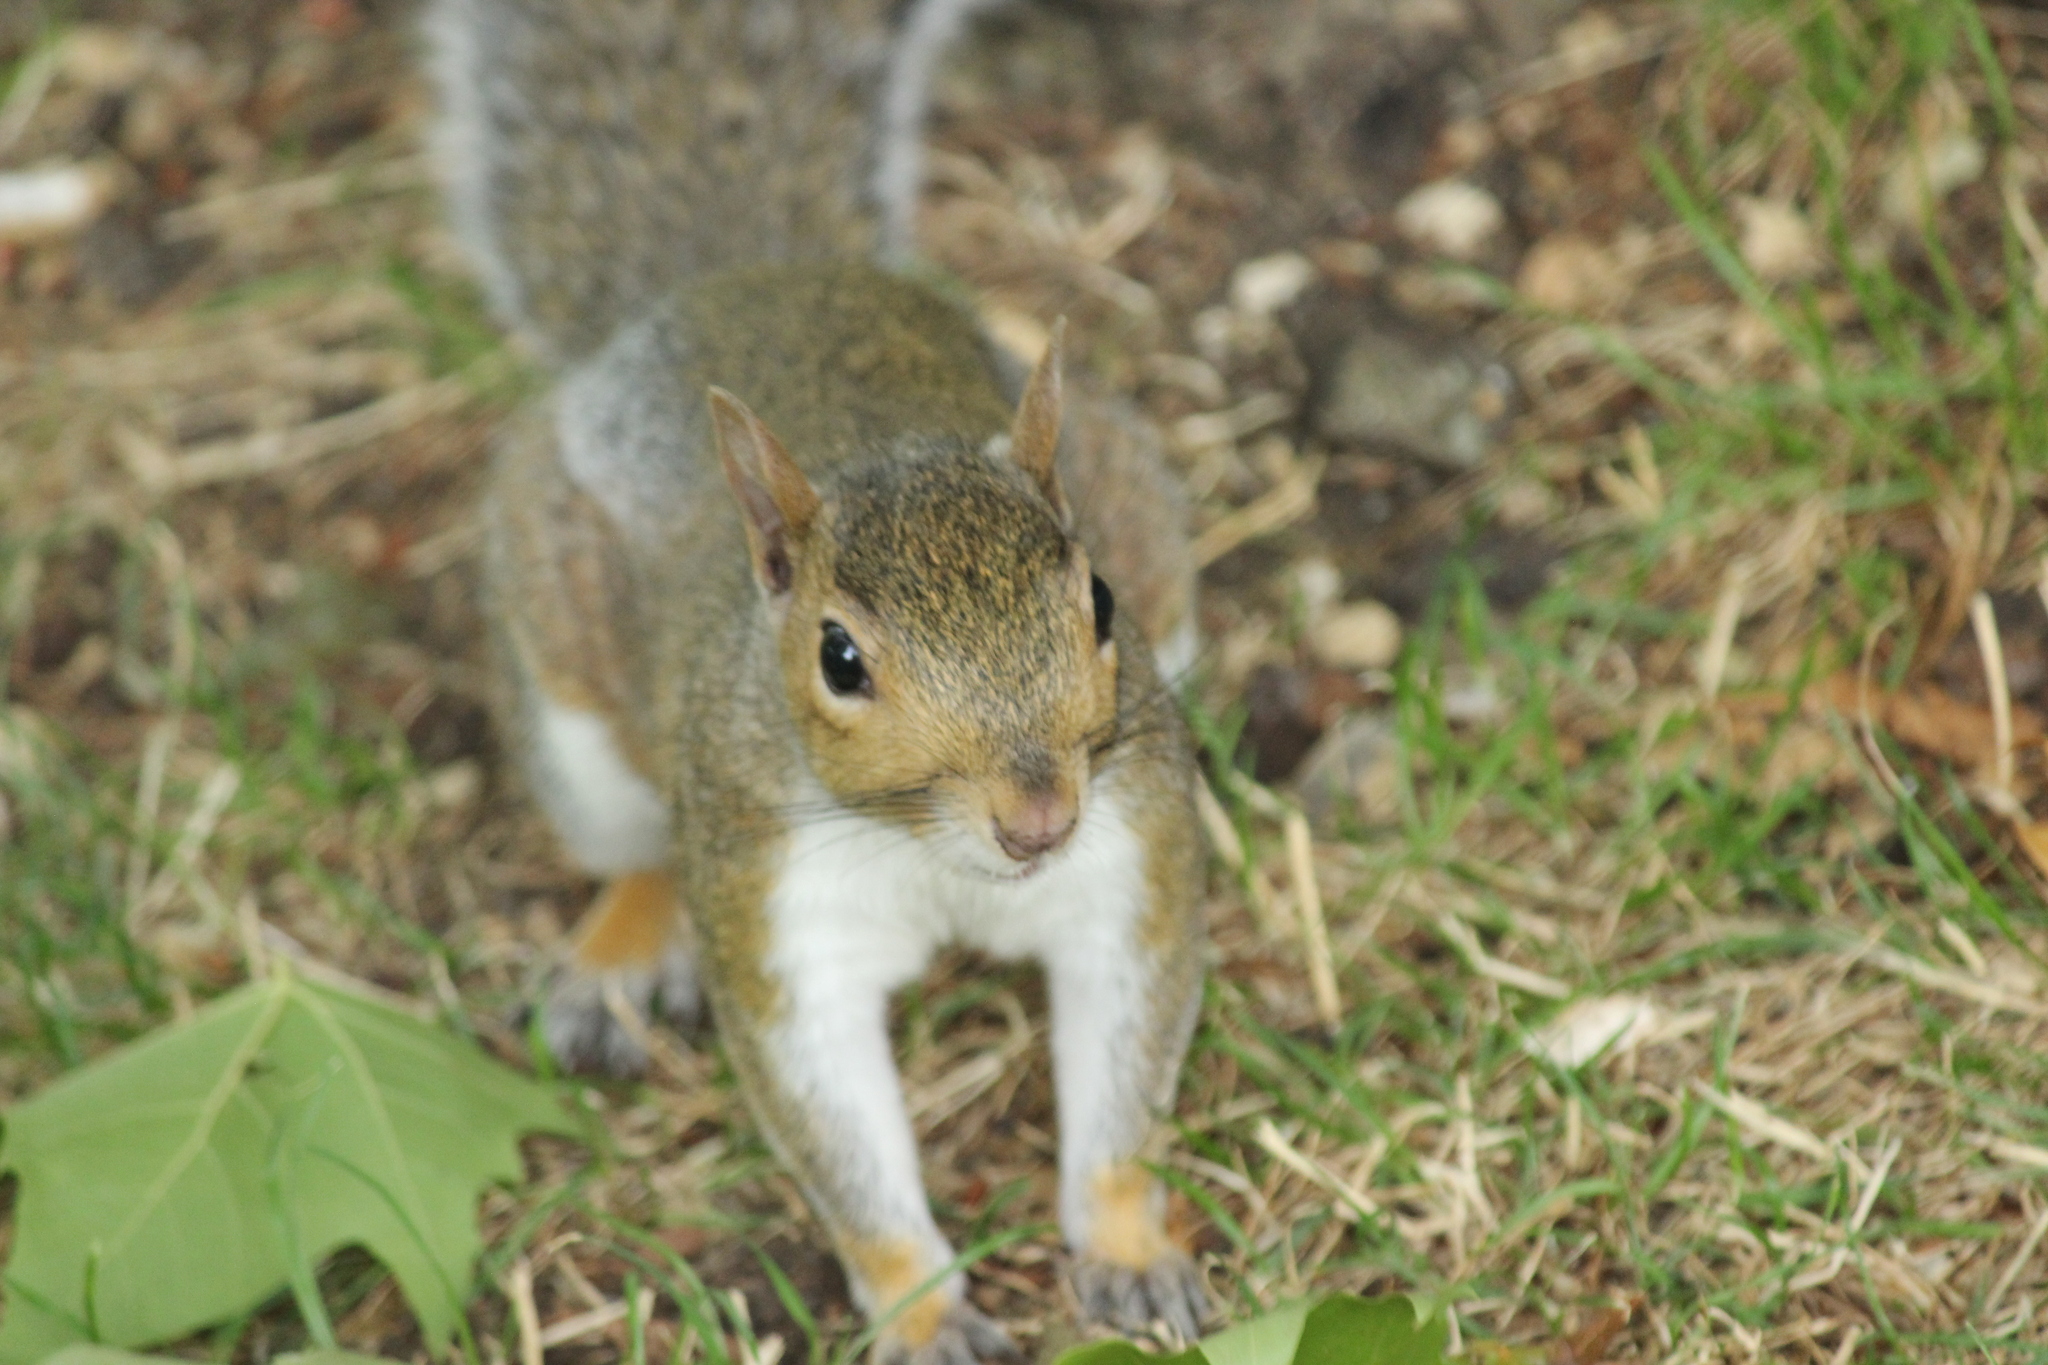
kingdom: Animalia
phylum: Chordata
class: Mammalia
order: Rodentia
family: Sciuridae
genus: Sciurus
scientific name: Sciurus carolinensis
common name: Eastern gray squirrel
